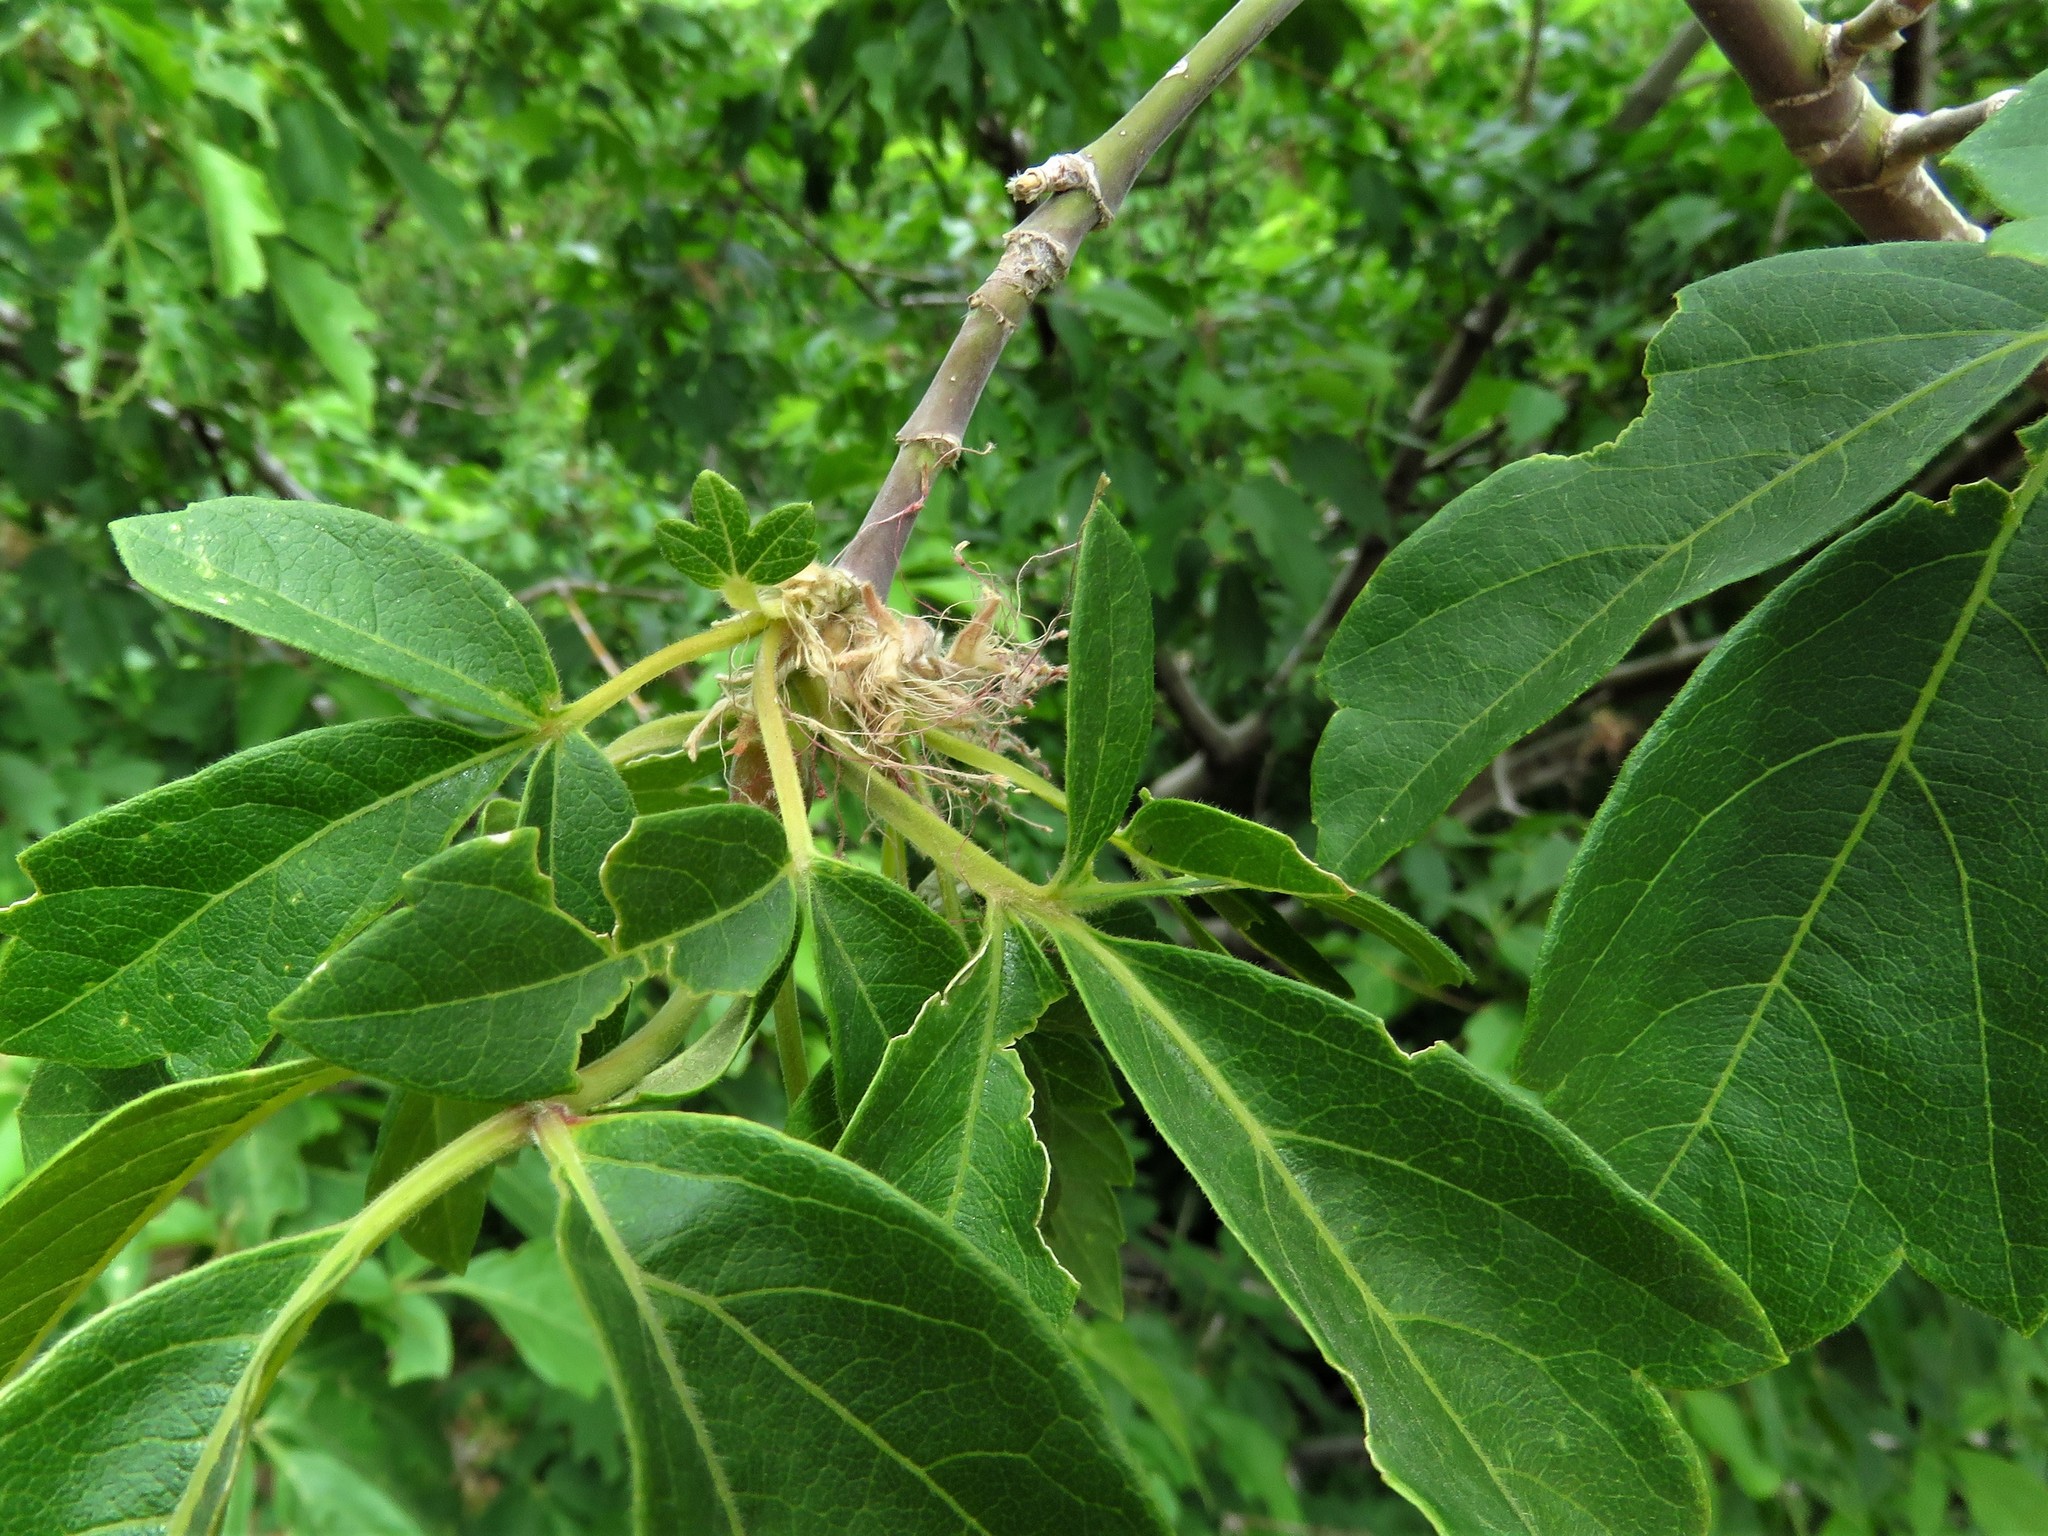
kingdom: Plantae
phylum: Tracheophyta
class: Magnoliopsida
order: Sapindales
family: Sapindaceae
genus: Acer
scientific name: Acer negundo
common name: Ashleaf maple
